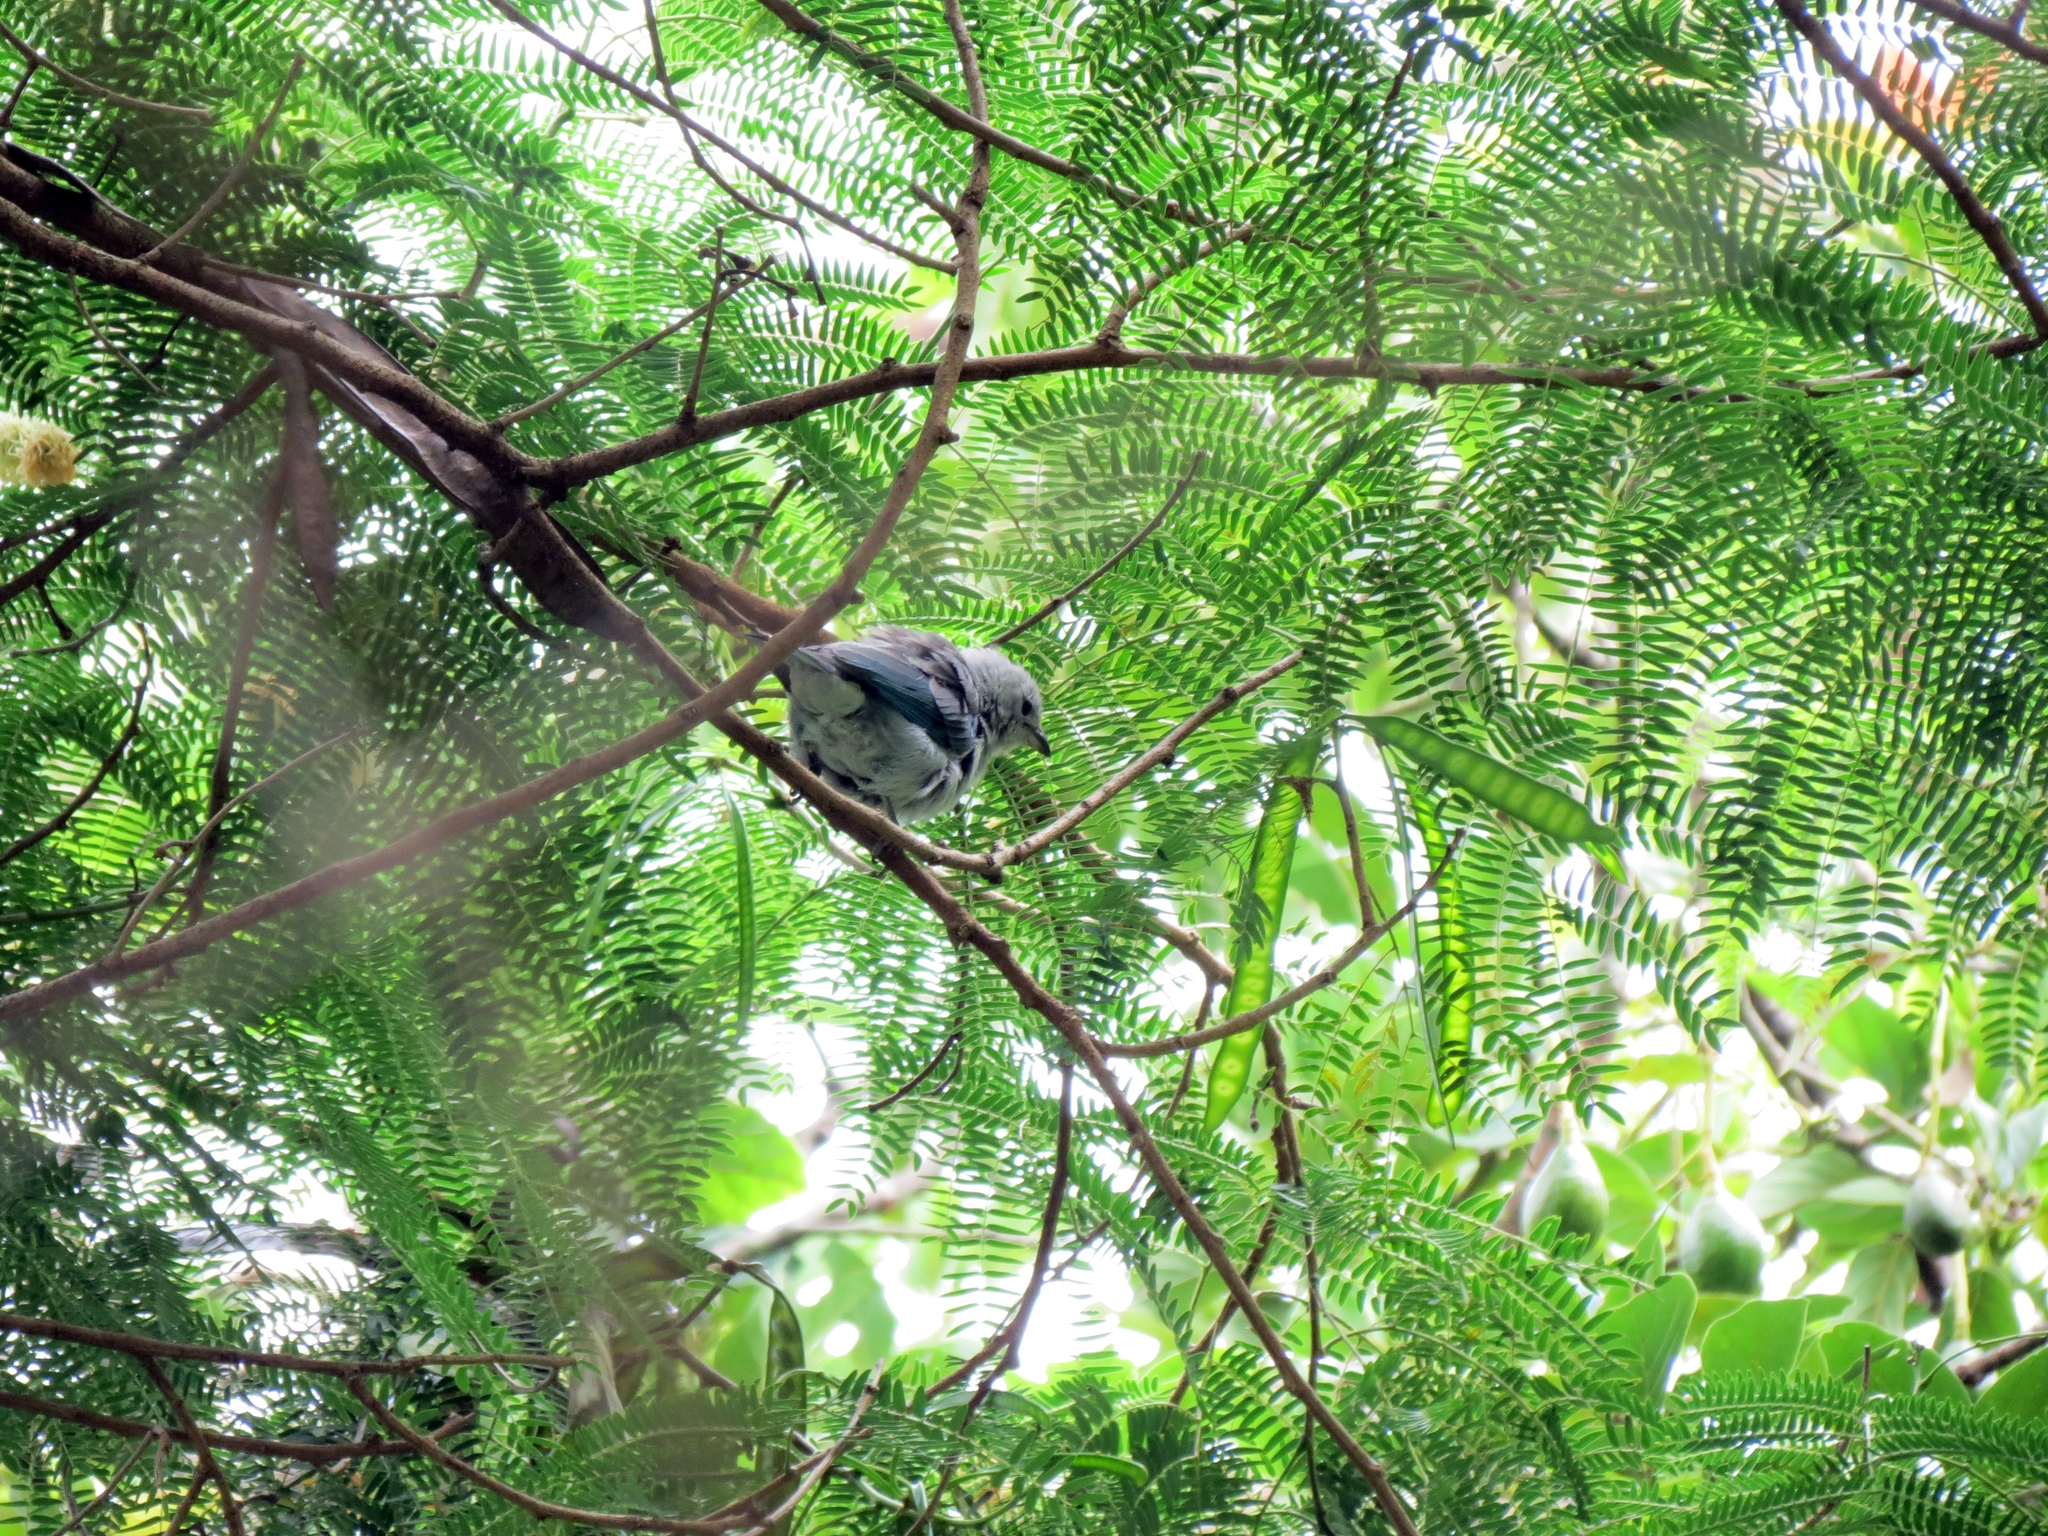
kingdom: Animalia
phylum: Chordata
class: Aves
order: Passeriformes
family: Thraupidae
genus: Thraupis
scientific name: Thraupis episcopus
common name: Blue-grey tanager
